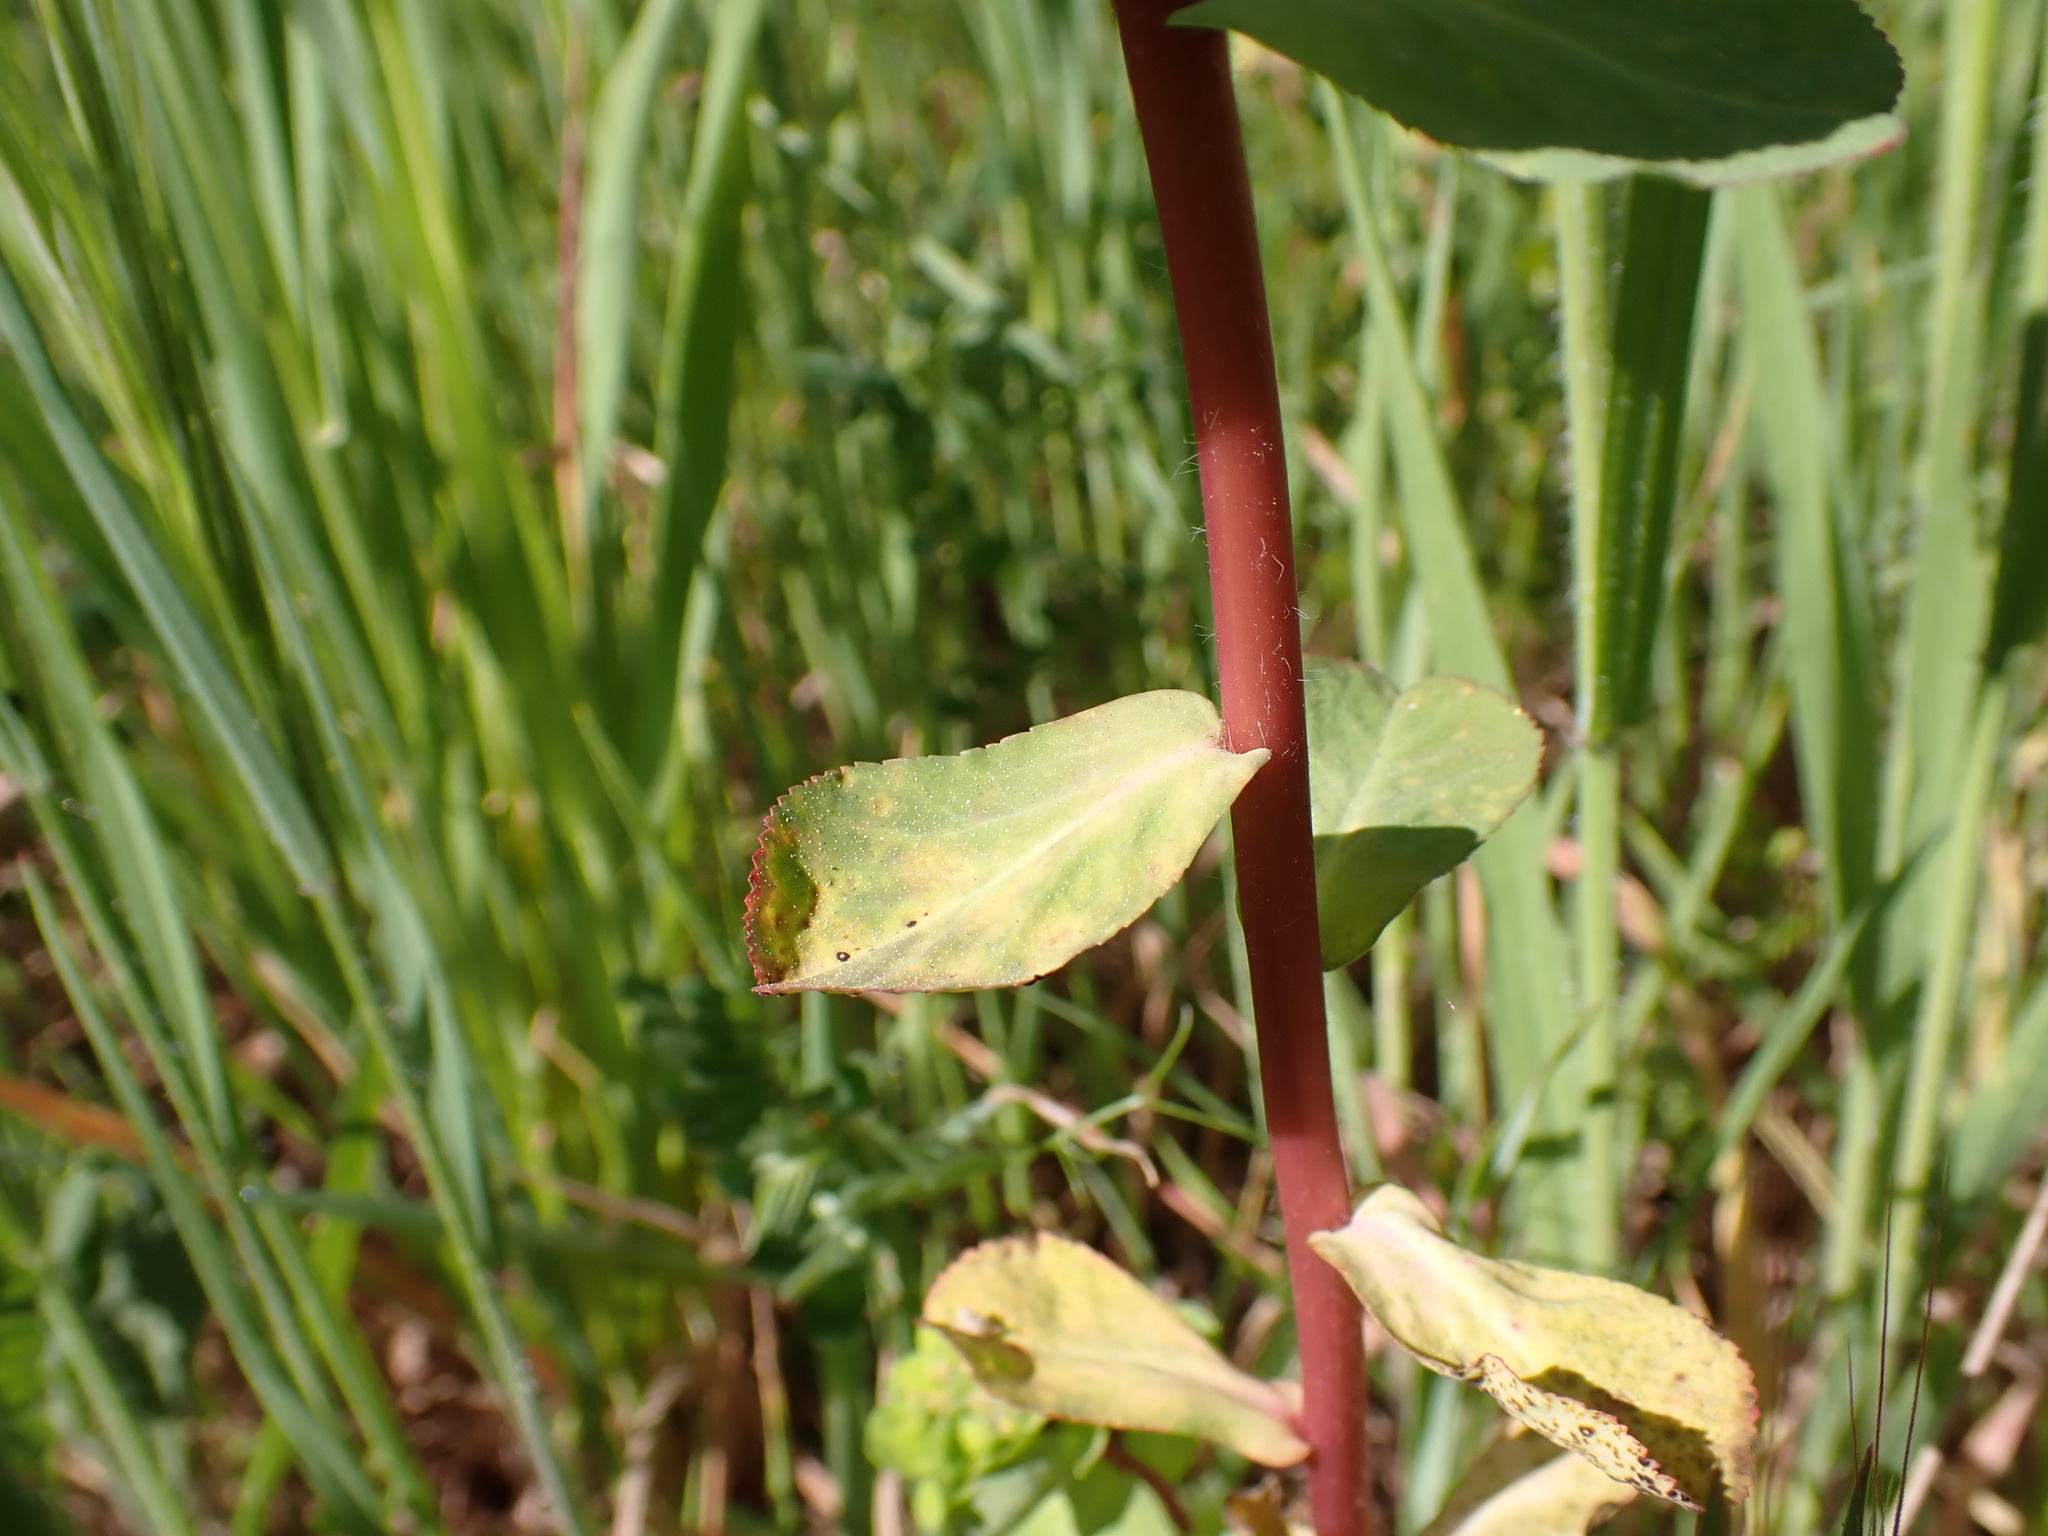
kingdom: Plantae
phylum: Tracheophyta
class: Magnoliopsida
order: Malpighiales
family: Euphorbiaceae
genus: Euphorbia
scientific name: Euphorbia helioscopia
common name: Sun spurge
